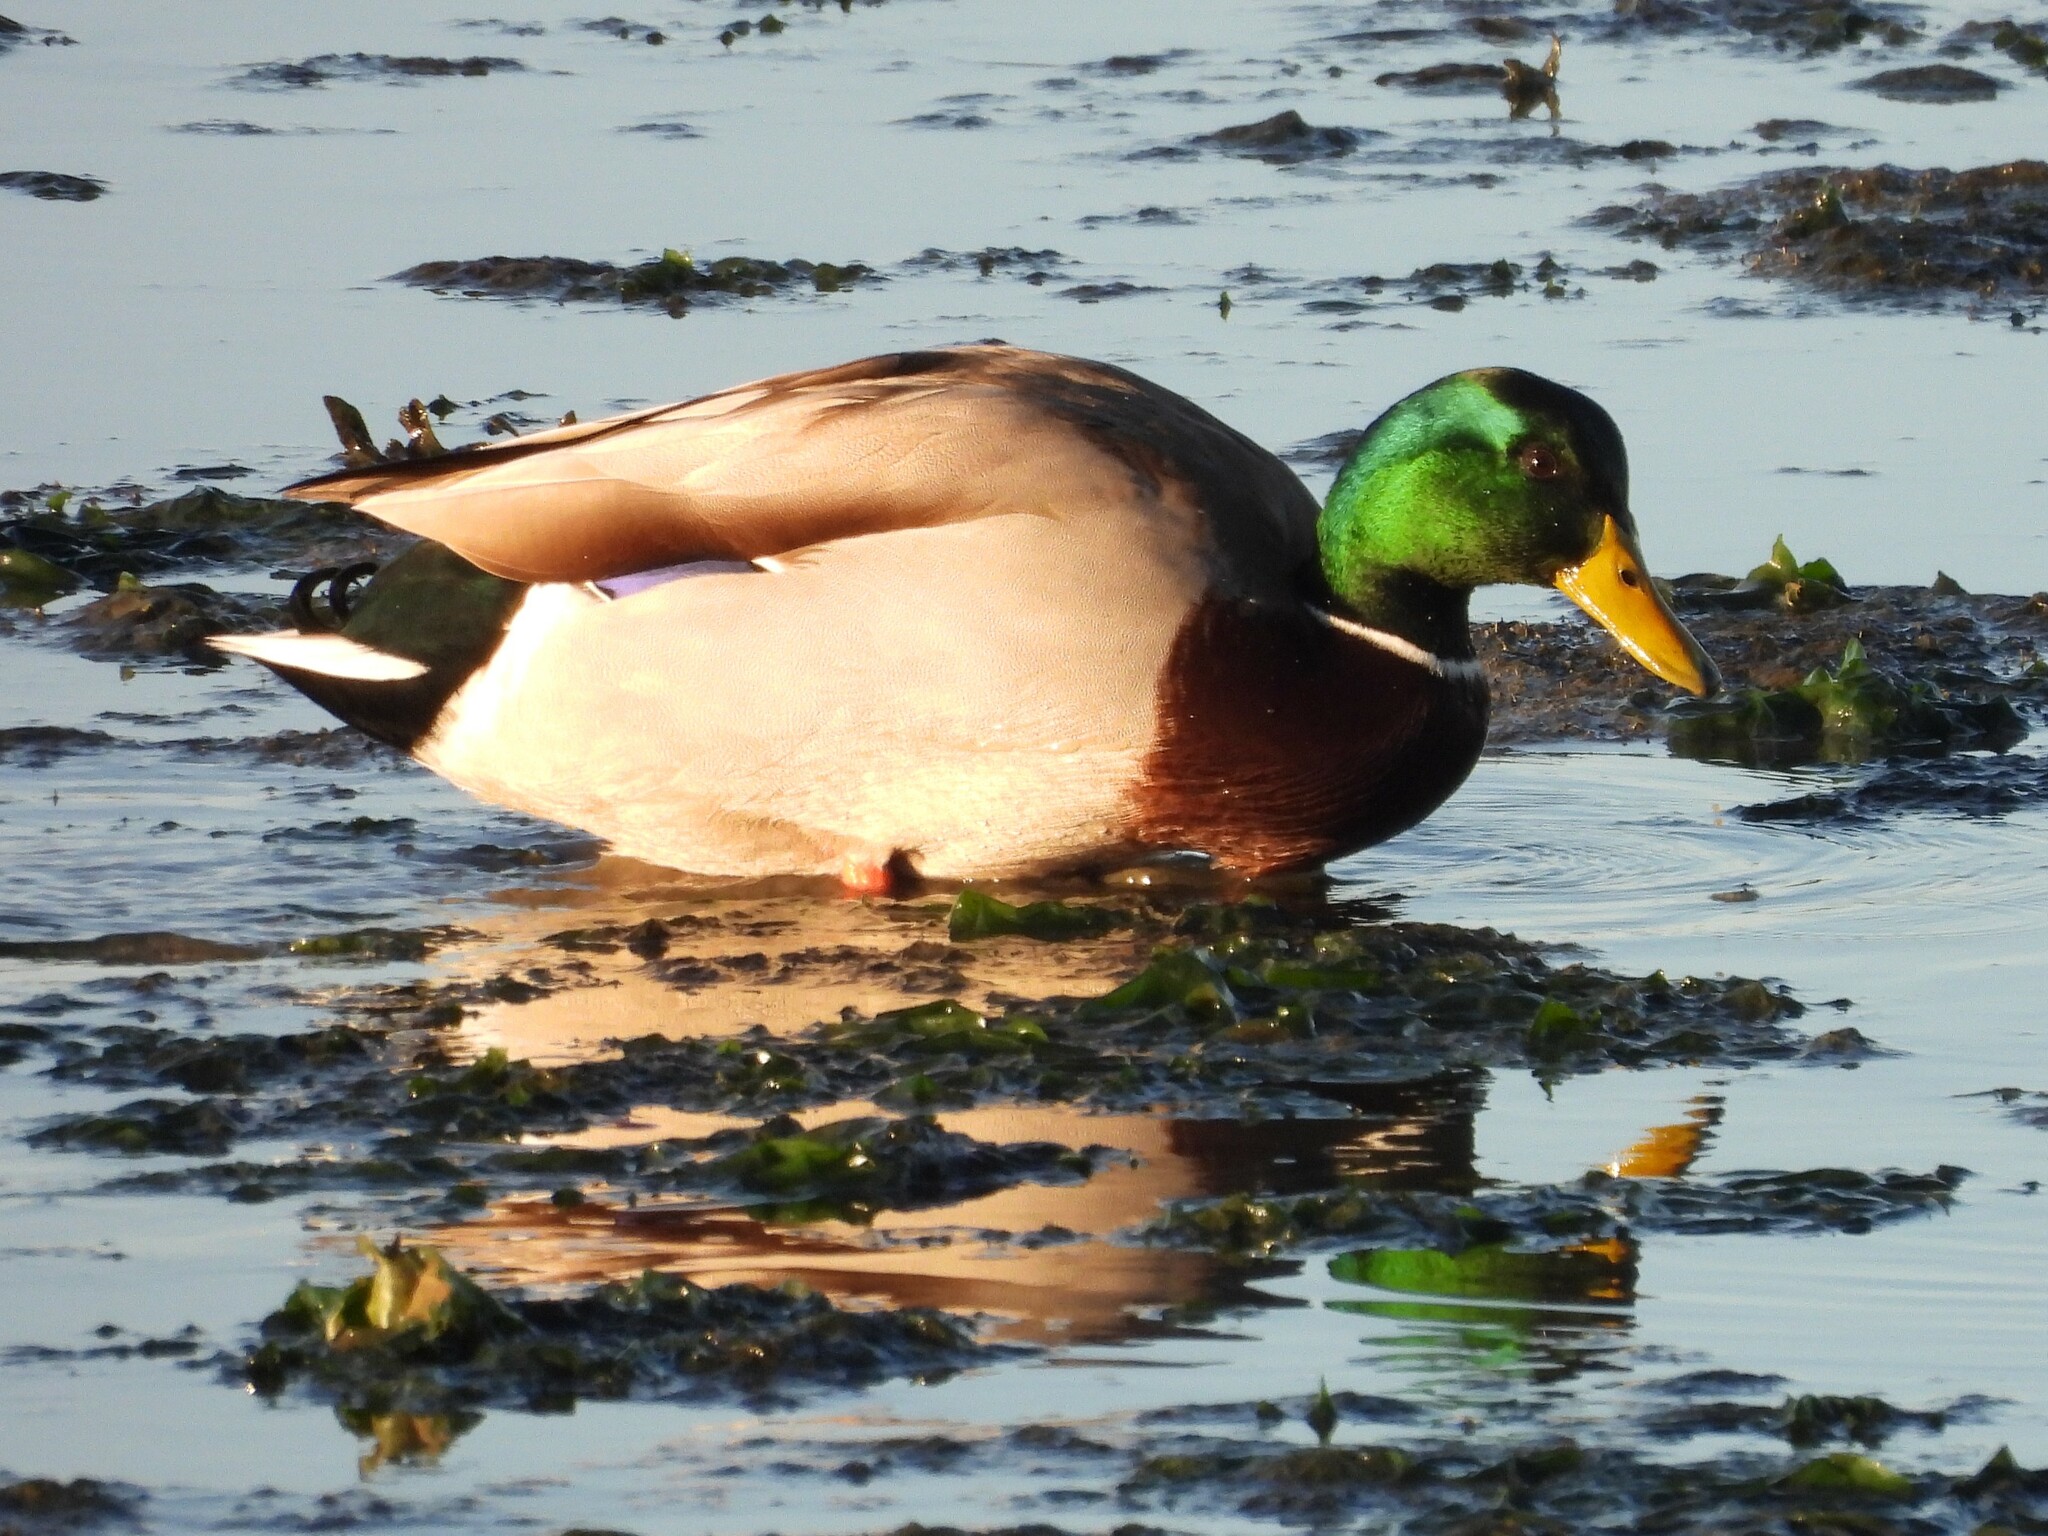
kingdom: Animalia
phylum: Chordata
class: Aves
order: Anseriformes
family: Anatidae
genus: Anas
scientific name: Anas platyrhynchos
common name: Mallard
